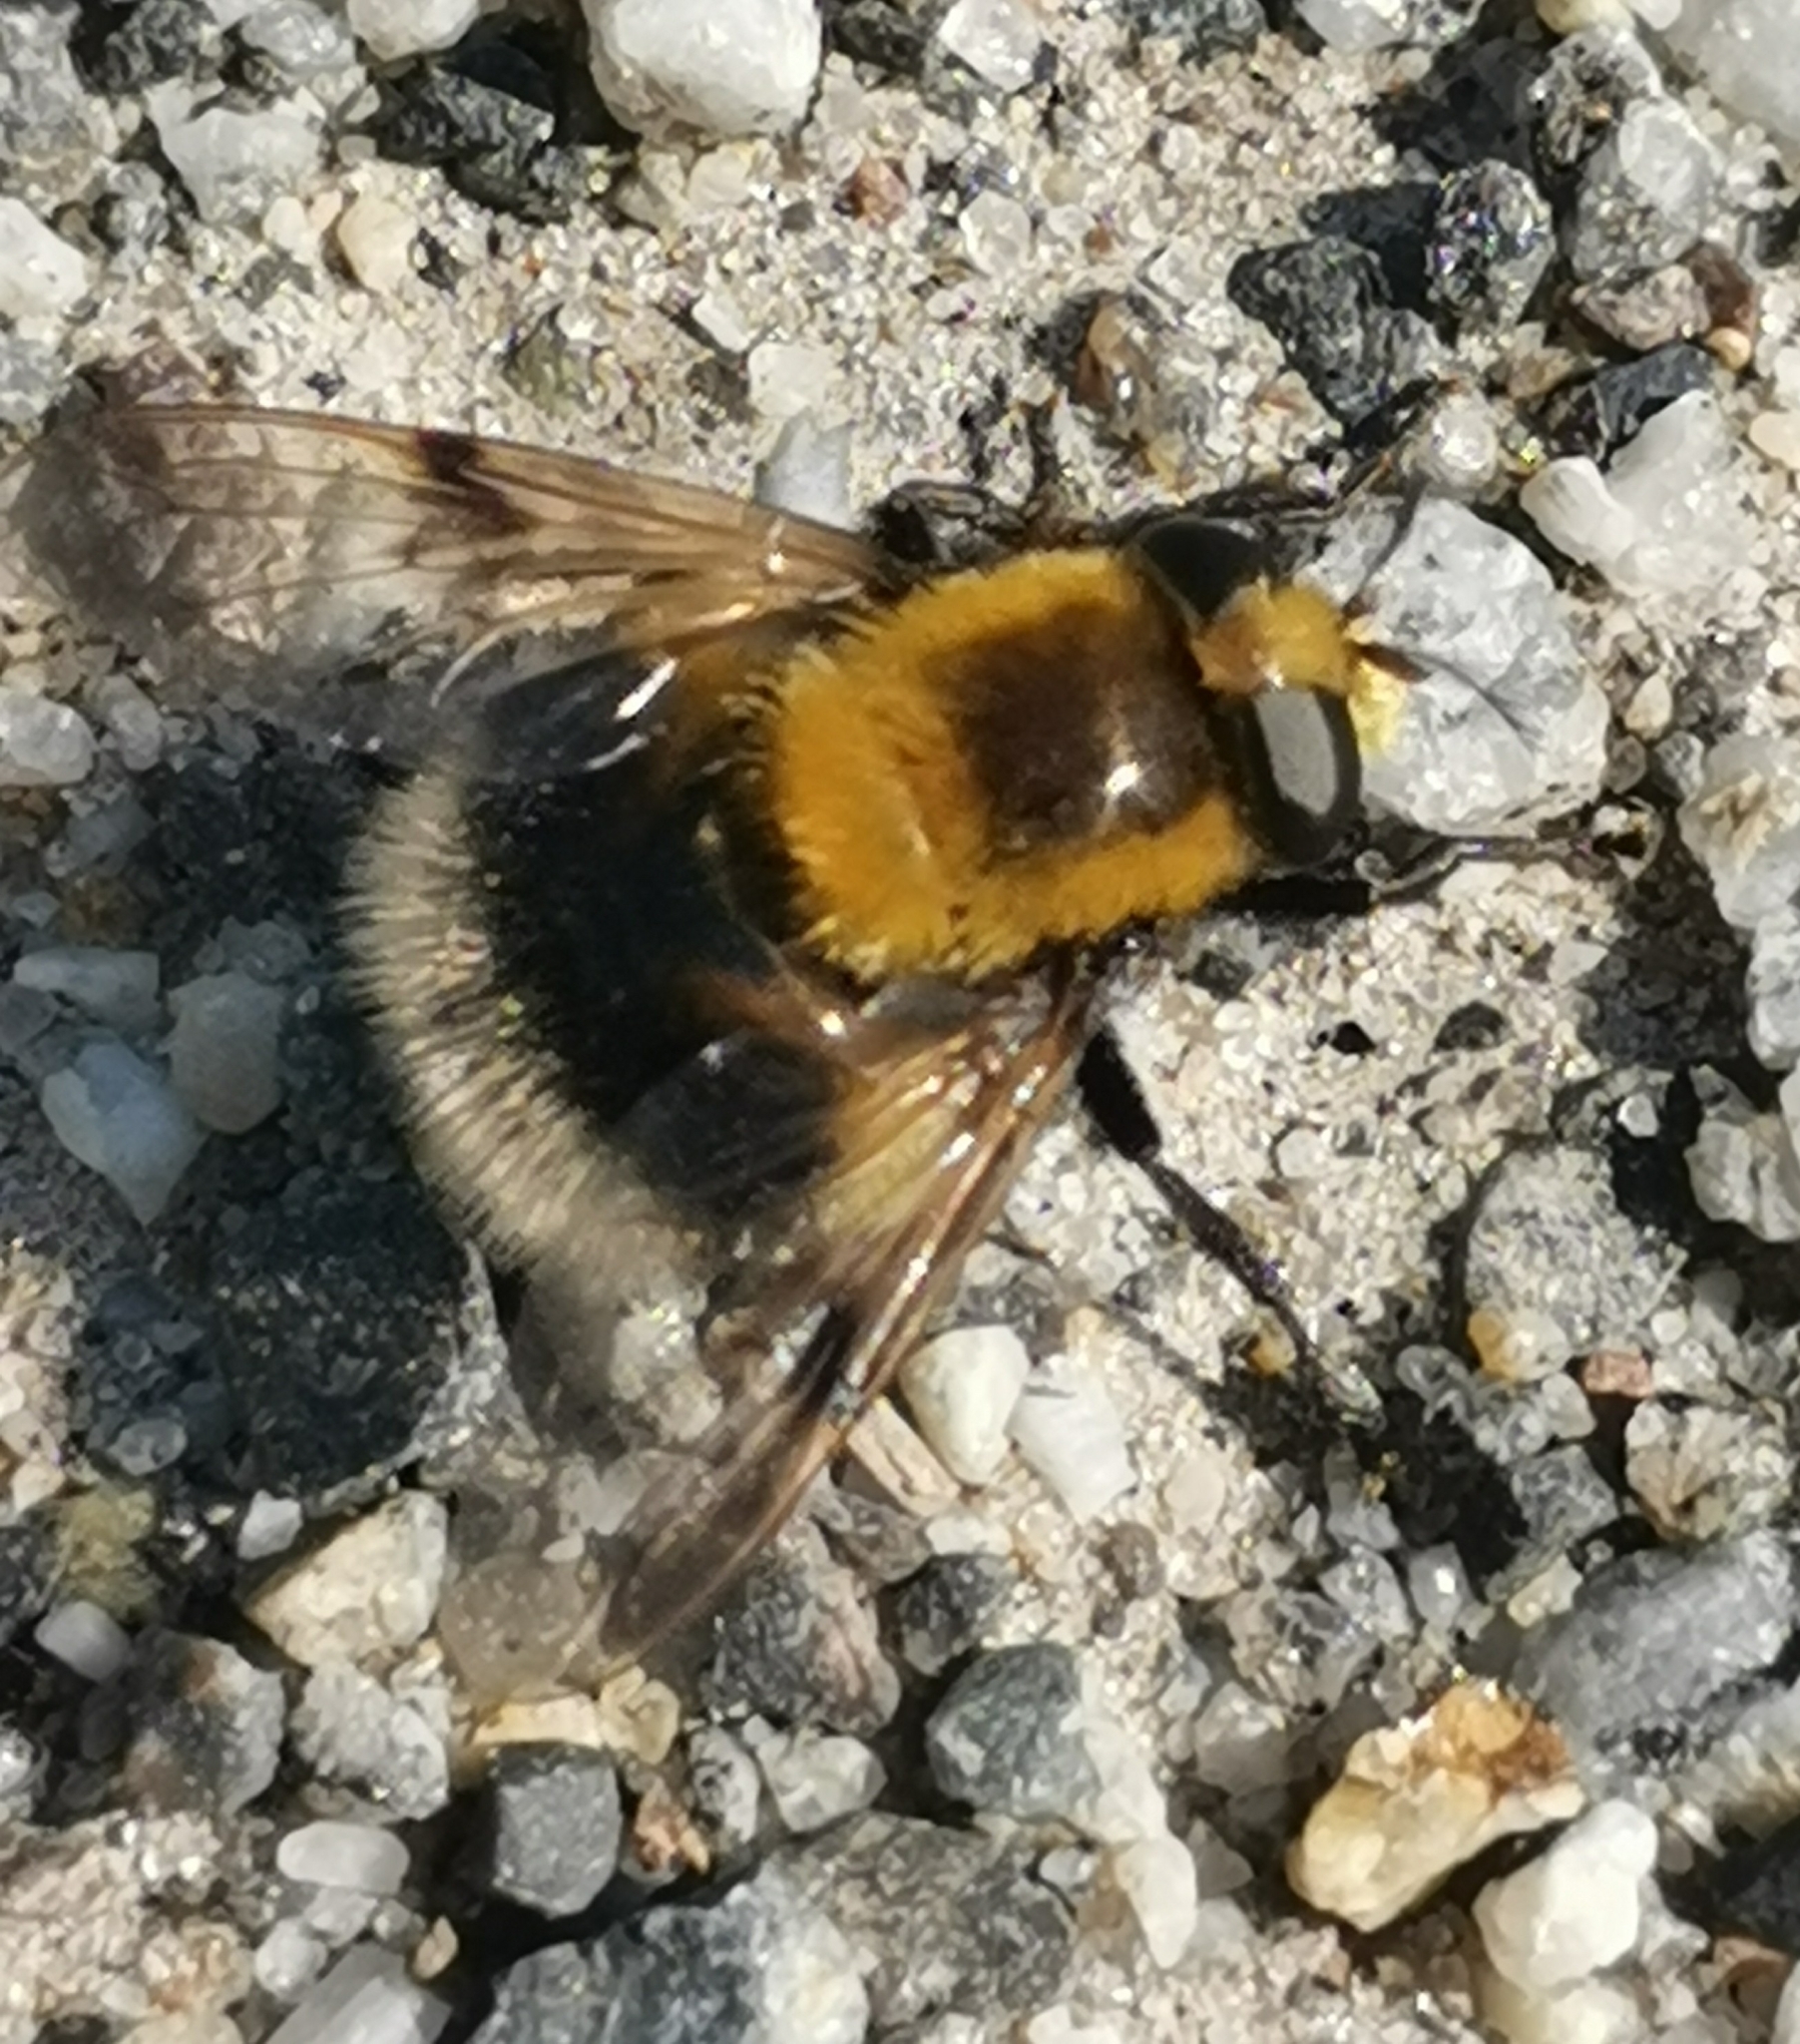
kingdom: Animalia
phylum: Arthropoda
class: Insecta
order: Diptera
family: Syrphidae
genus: Volucella
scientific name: Volucella bombylans
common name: Bumble bee hover fly
